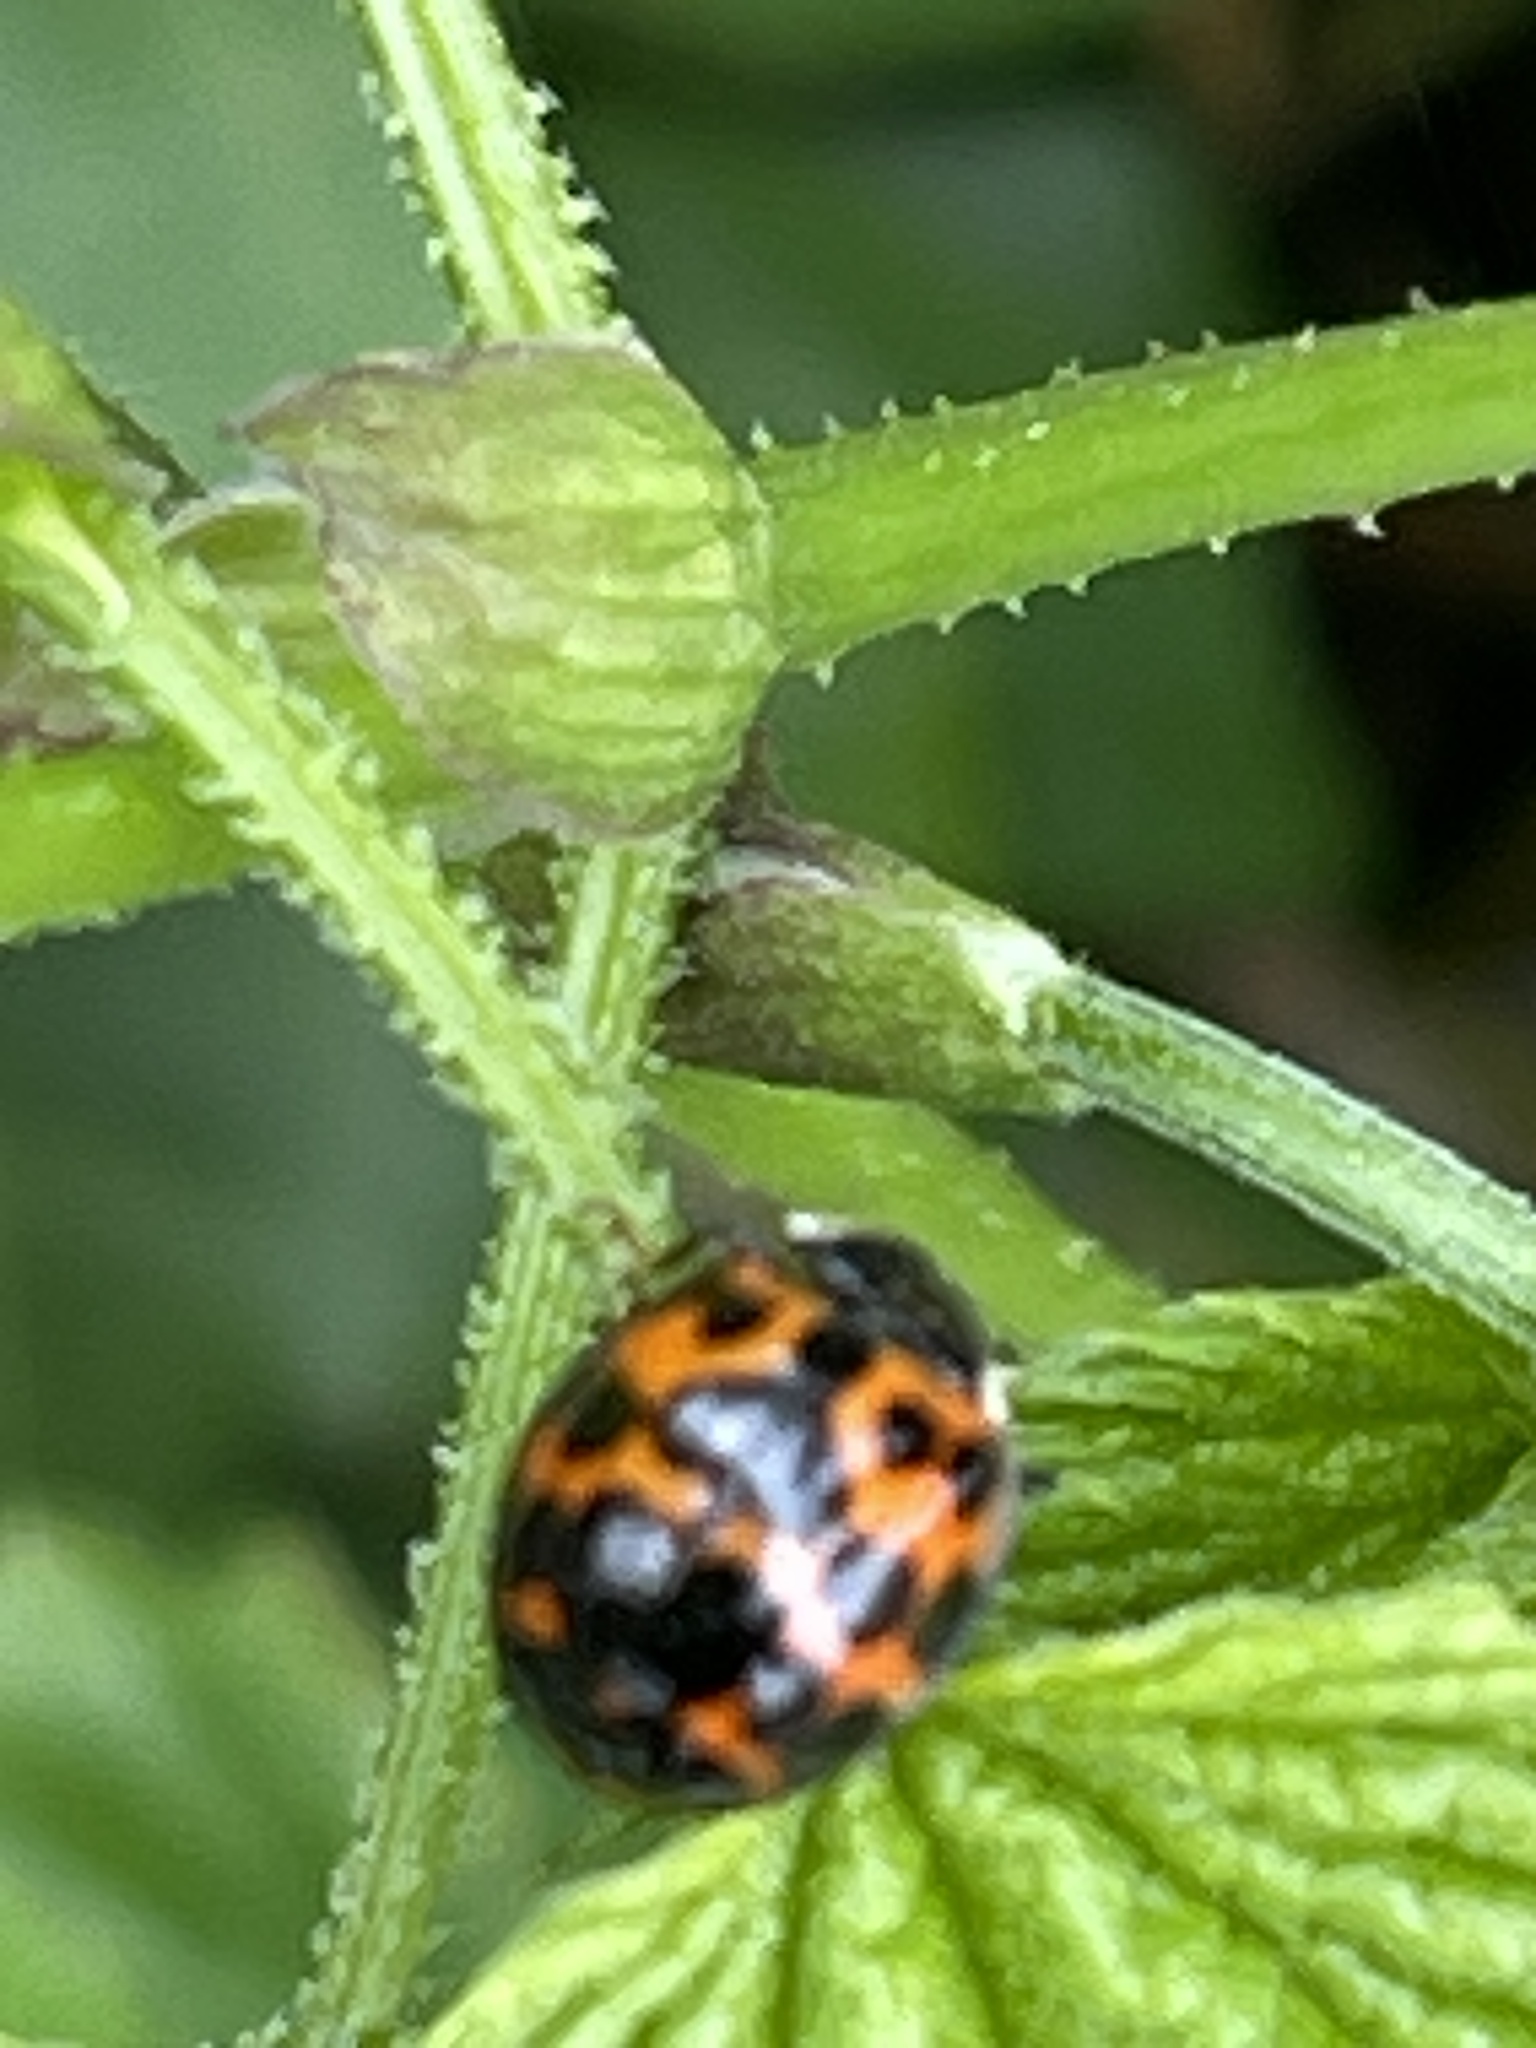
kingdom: Animalia
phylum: Arthropoda
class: Insecta
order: Coleoptera
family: Coccinellidae
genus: Harmonia
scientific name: Harmonia axyridis
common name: Harlequin ladybird
